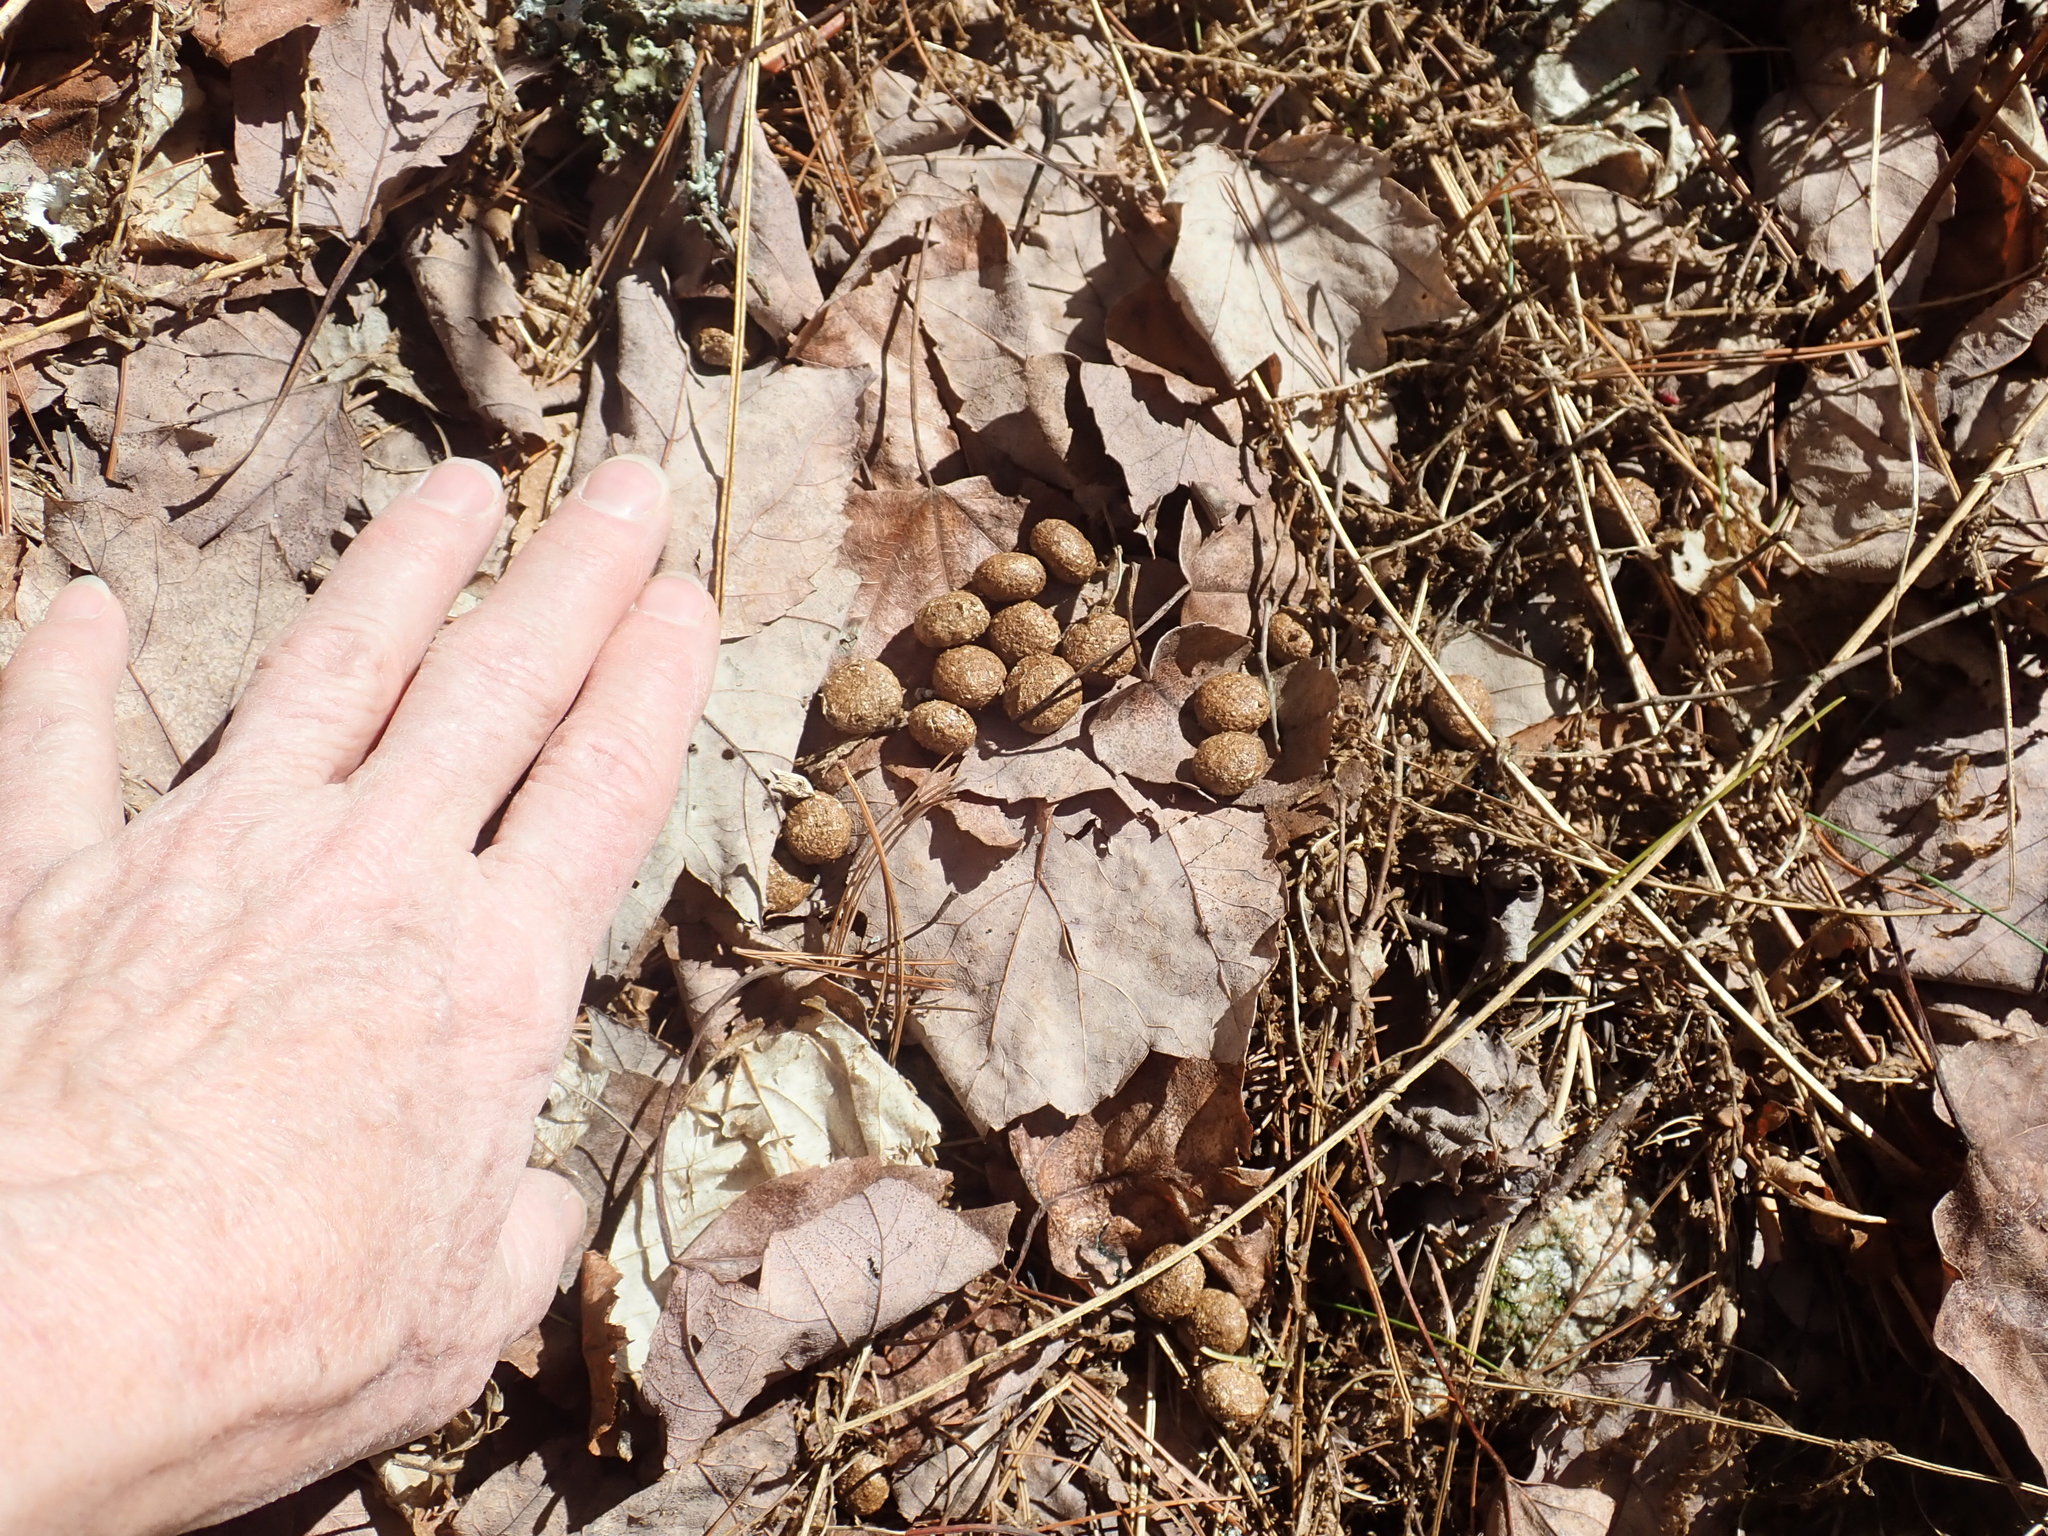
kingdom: Animalia
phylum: Chordata
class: Mammalia
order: Artiodactyla
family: Cervidae
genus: Odocoileus
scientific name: Odocoileus virginianus
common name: White-tailed deer
